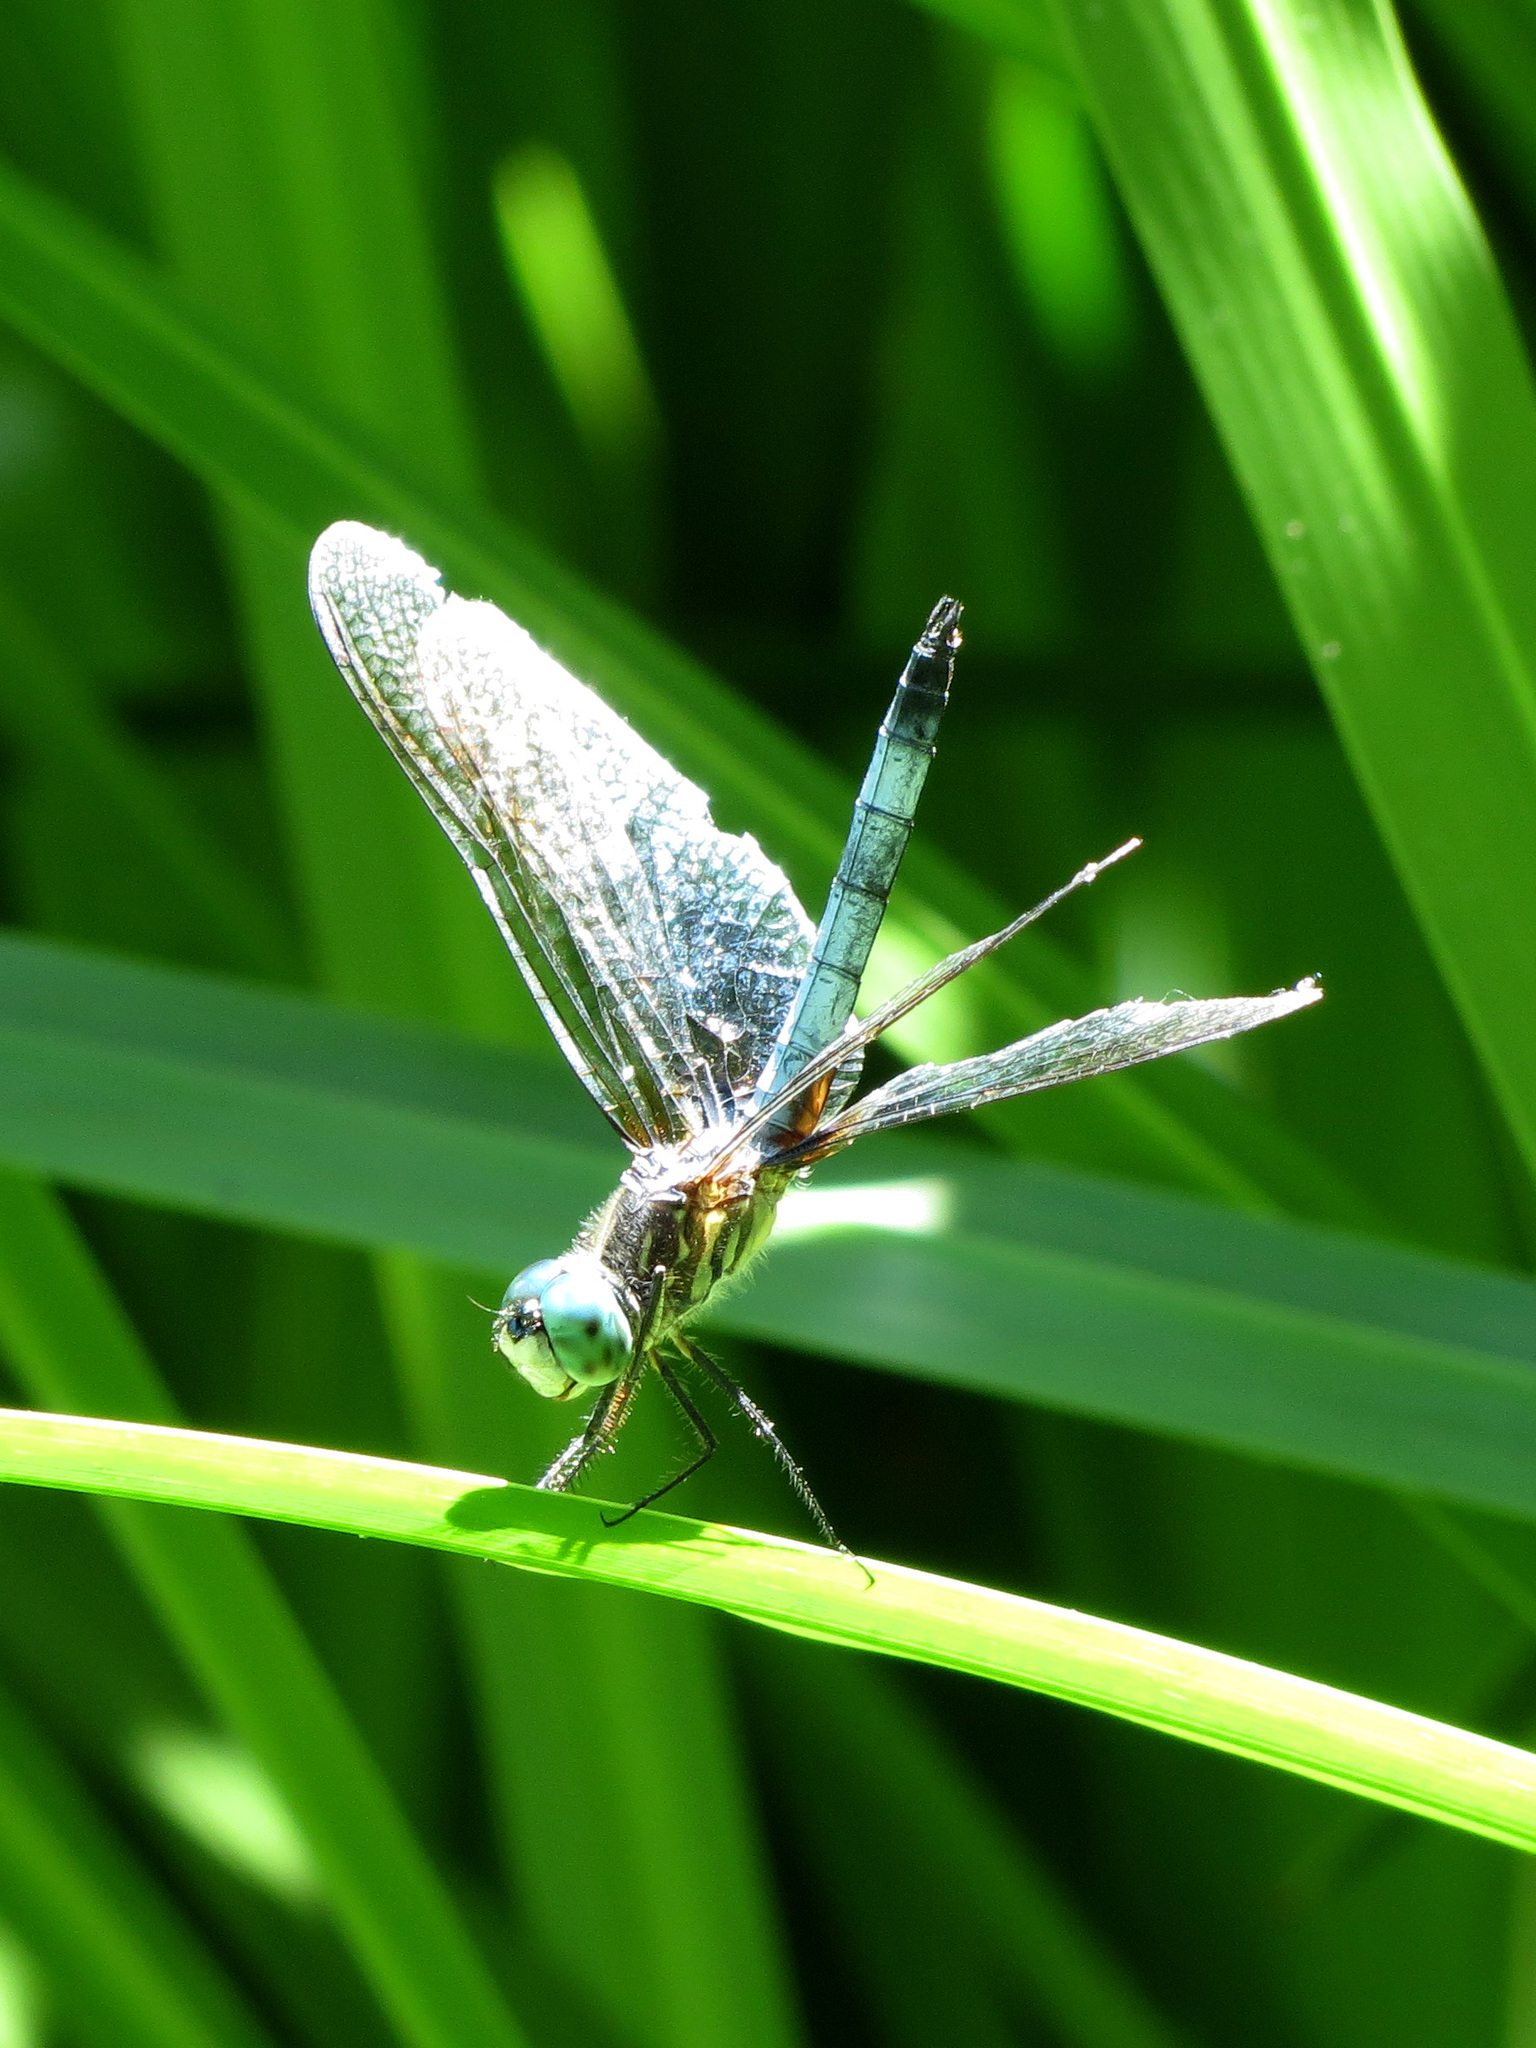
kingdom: Animalia
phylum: Arthropoda
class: Insecta
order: Odonata
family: Libellulidae
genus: Pachydiplax
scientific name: Pachydiplax longipennis
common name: Blue dasher
